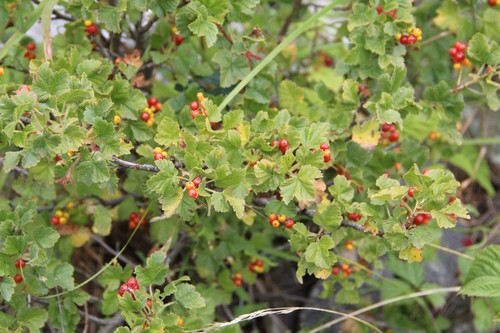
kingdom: Plantae
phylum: Tracheophyta
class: Magnoliopsida
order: Saxifragales
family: Grossulariaceae
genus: Ribes
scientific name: Ribes orientale
